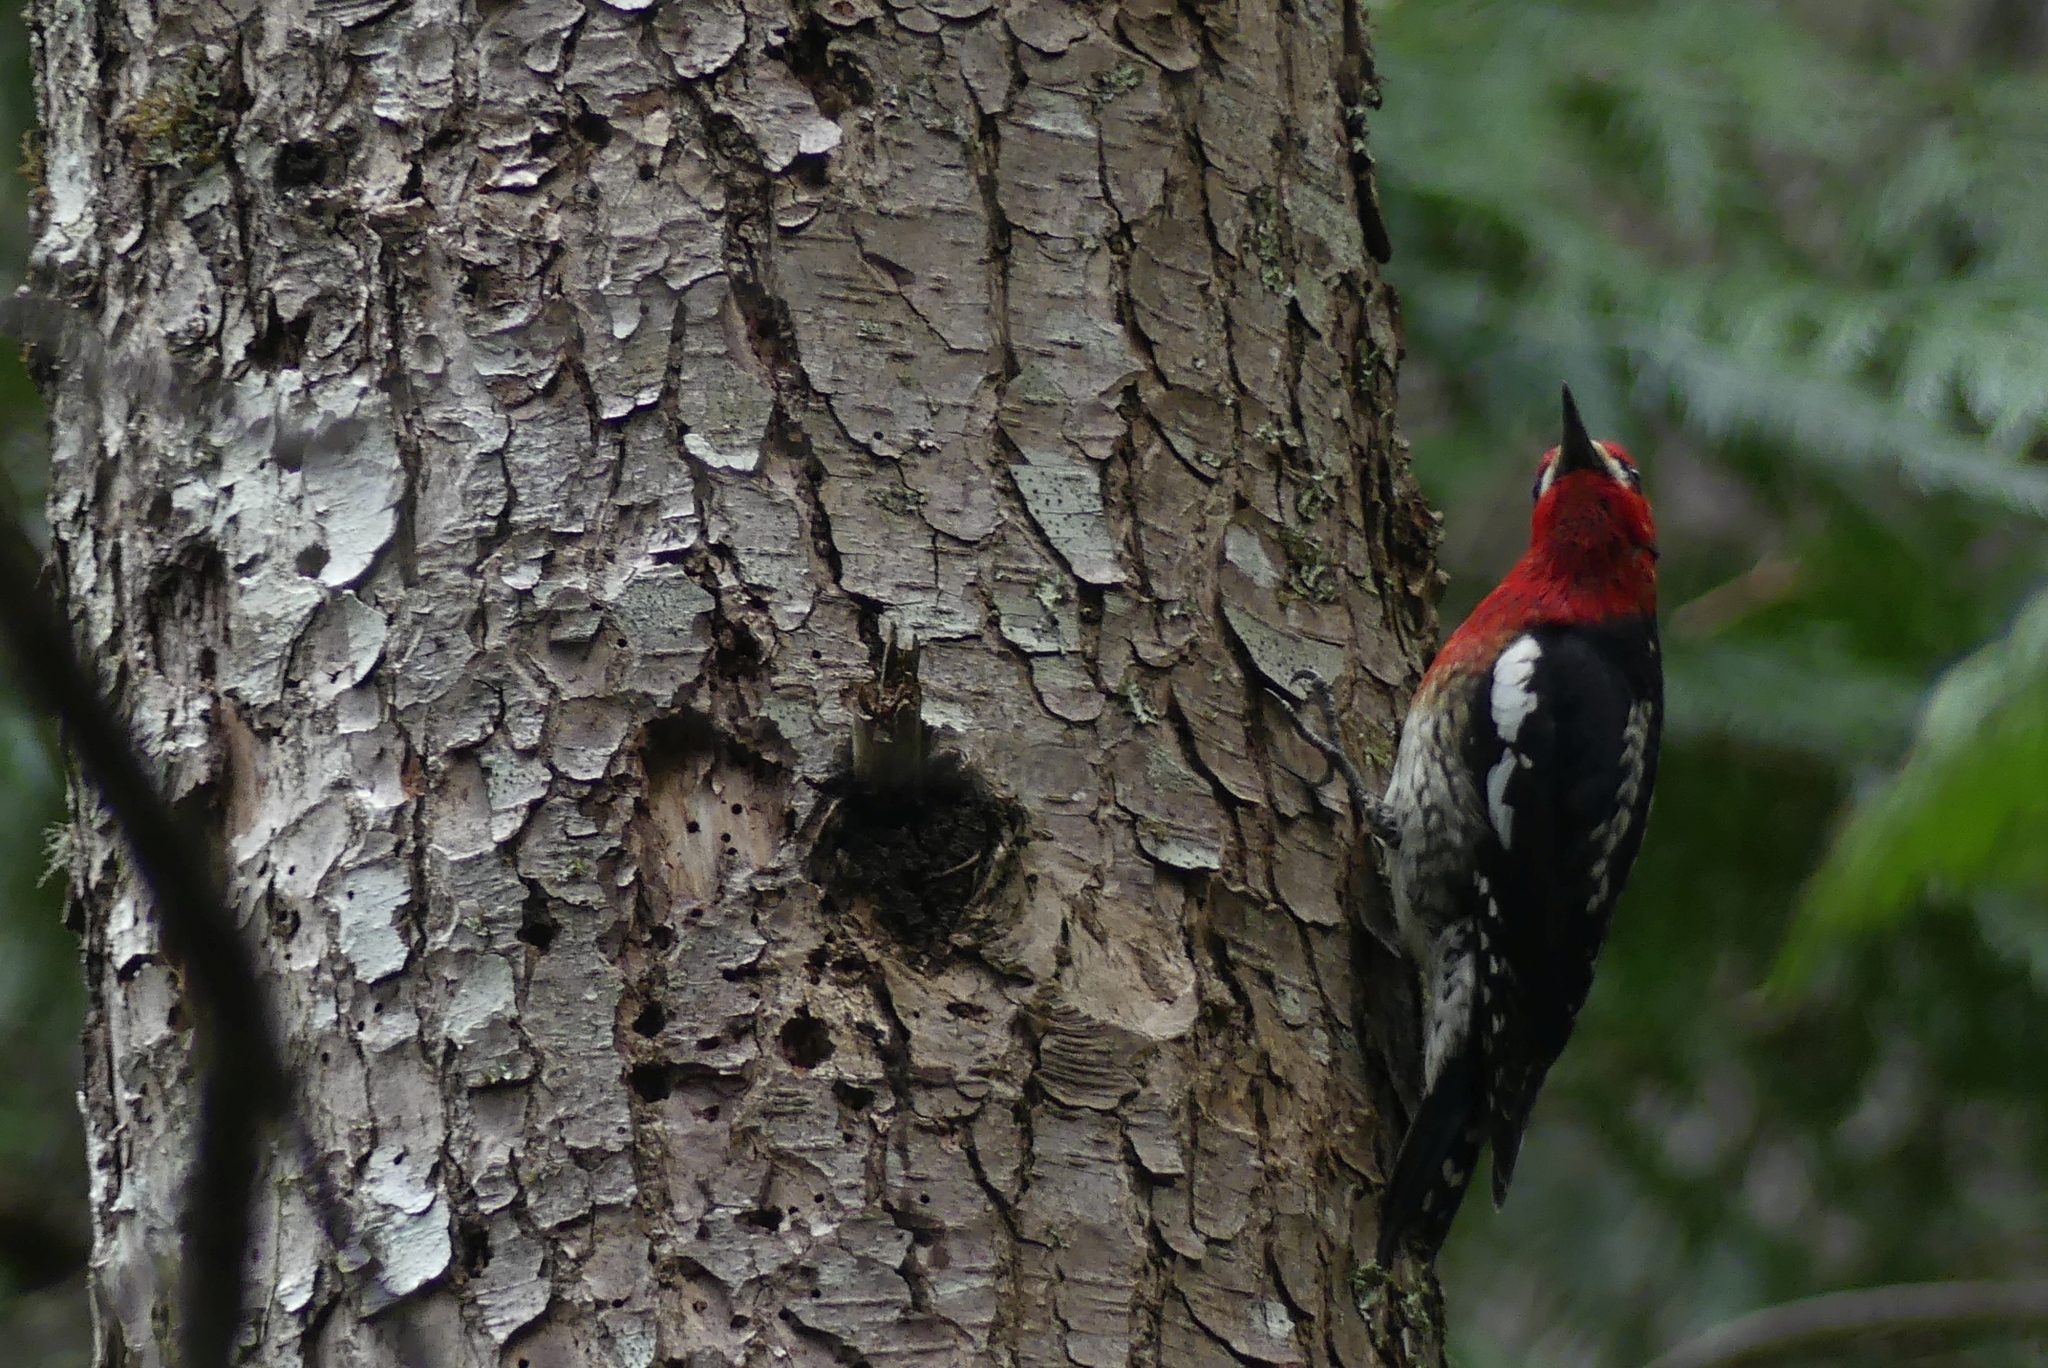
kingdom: Animalia
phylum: Chordata
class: Aves
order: Piciformes
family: Picidae
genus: Sphyrapicus
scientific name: Sphyrapicus ruber
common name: Red-breasted sapsucker
